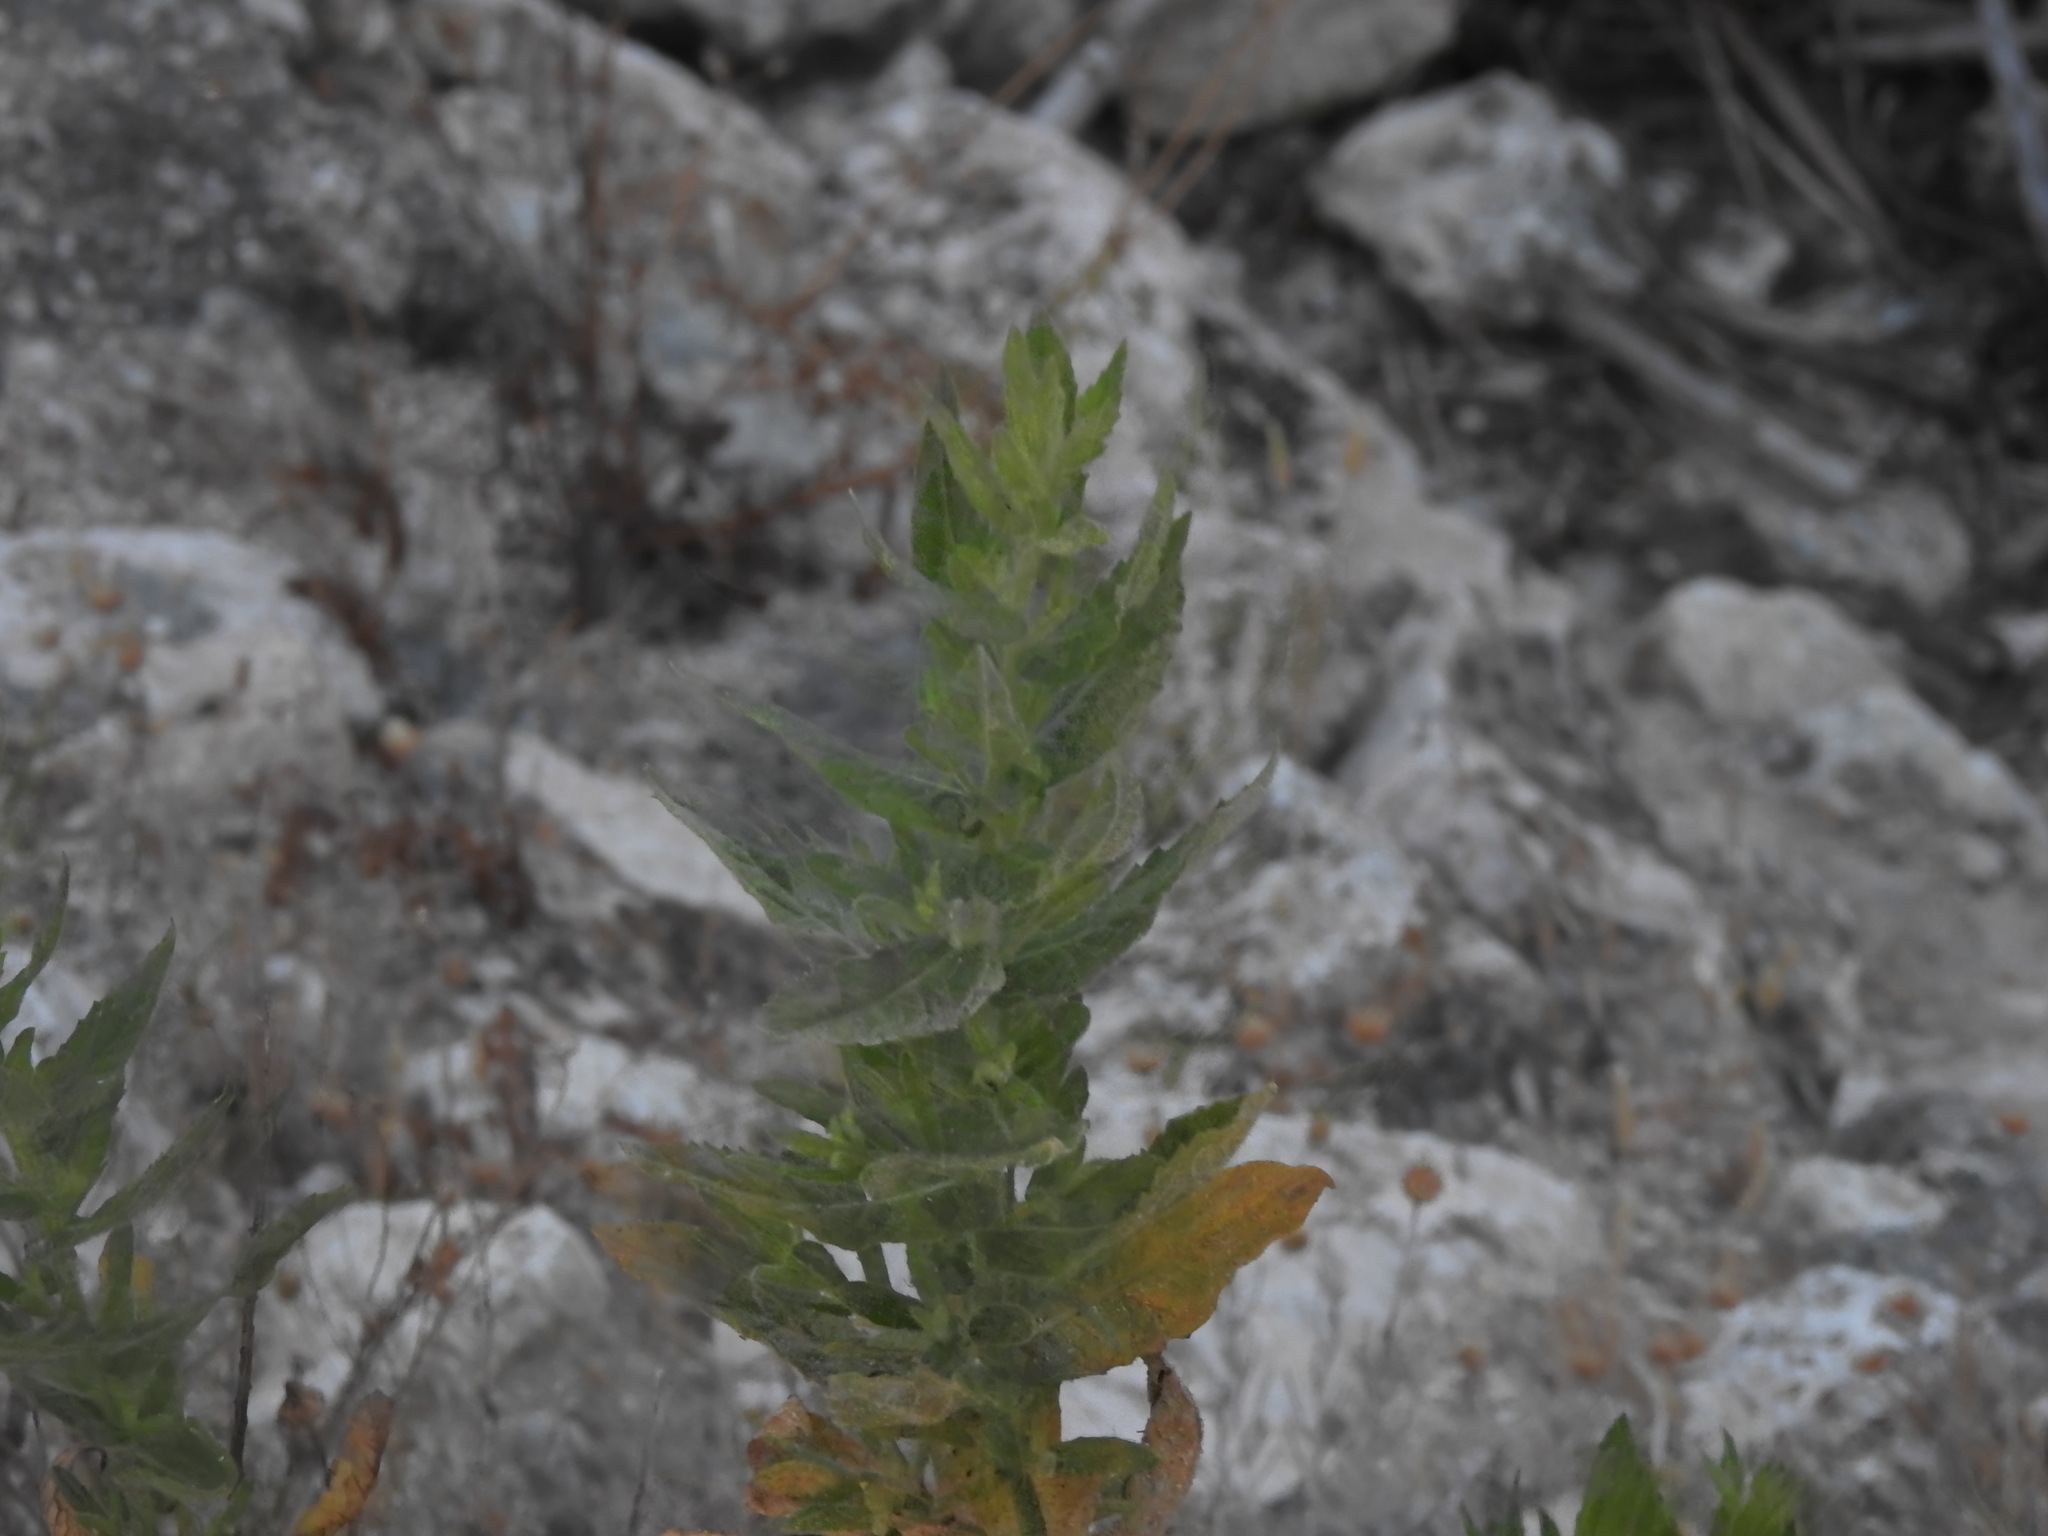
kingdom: Plantae
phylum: Tracheophyta
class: Magnoliopsida
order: Asterales
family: Asteraceae
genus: Dittrichia
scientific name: Dittrichia viscosa
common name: Woody fleabane
